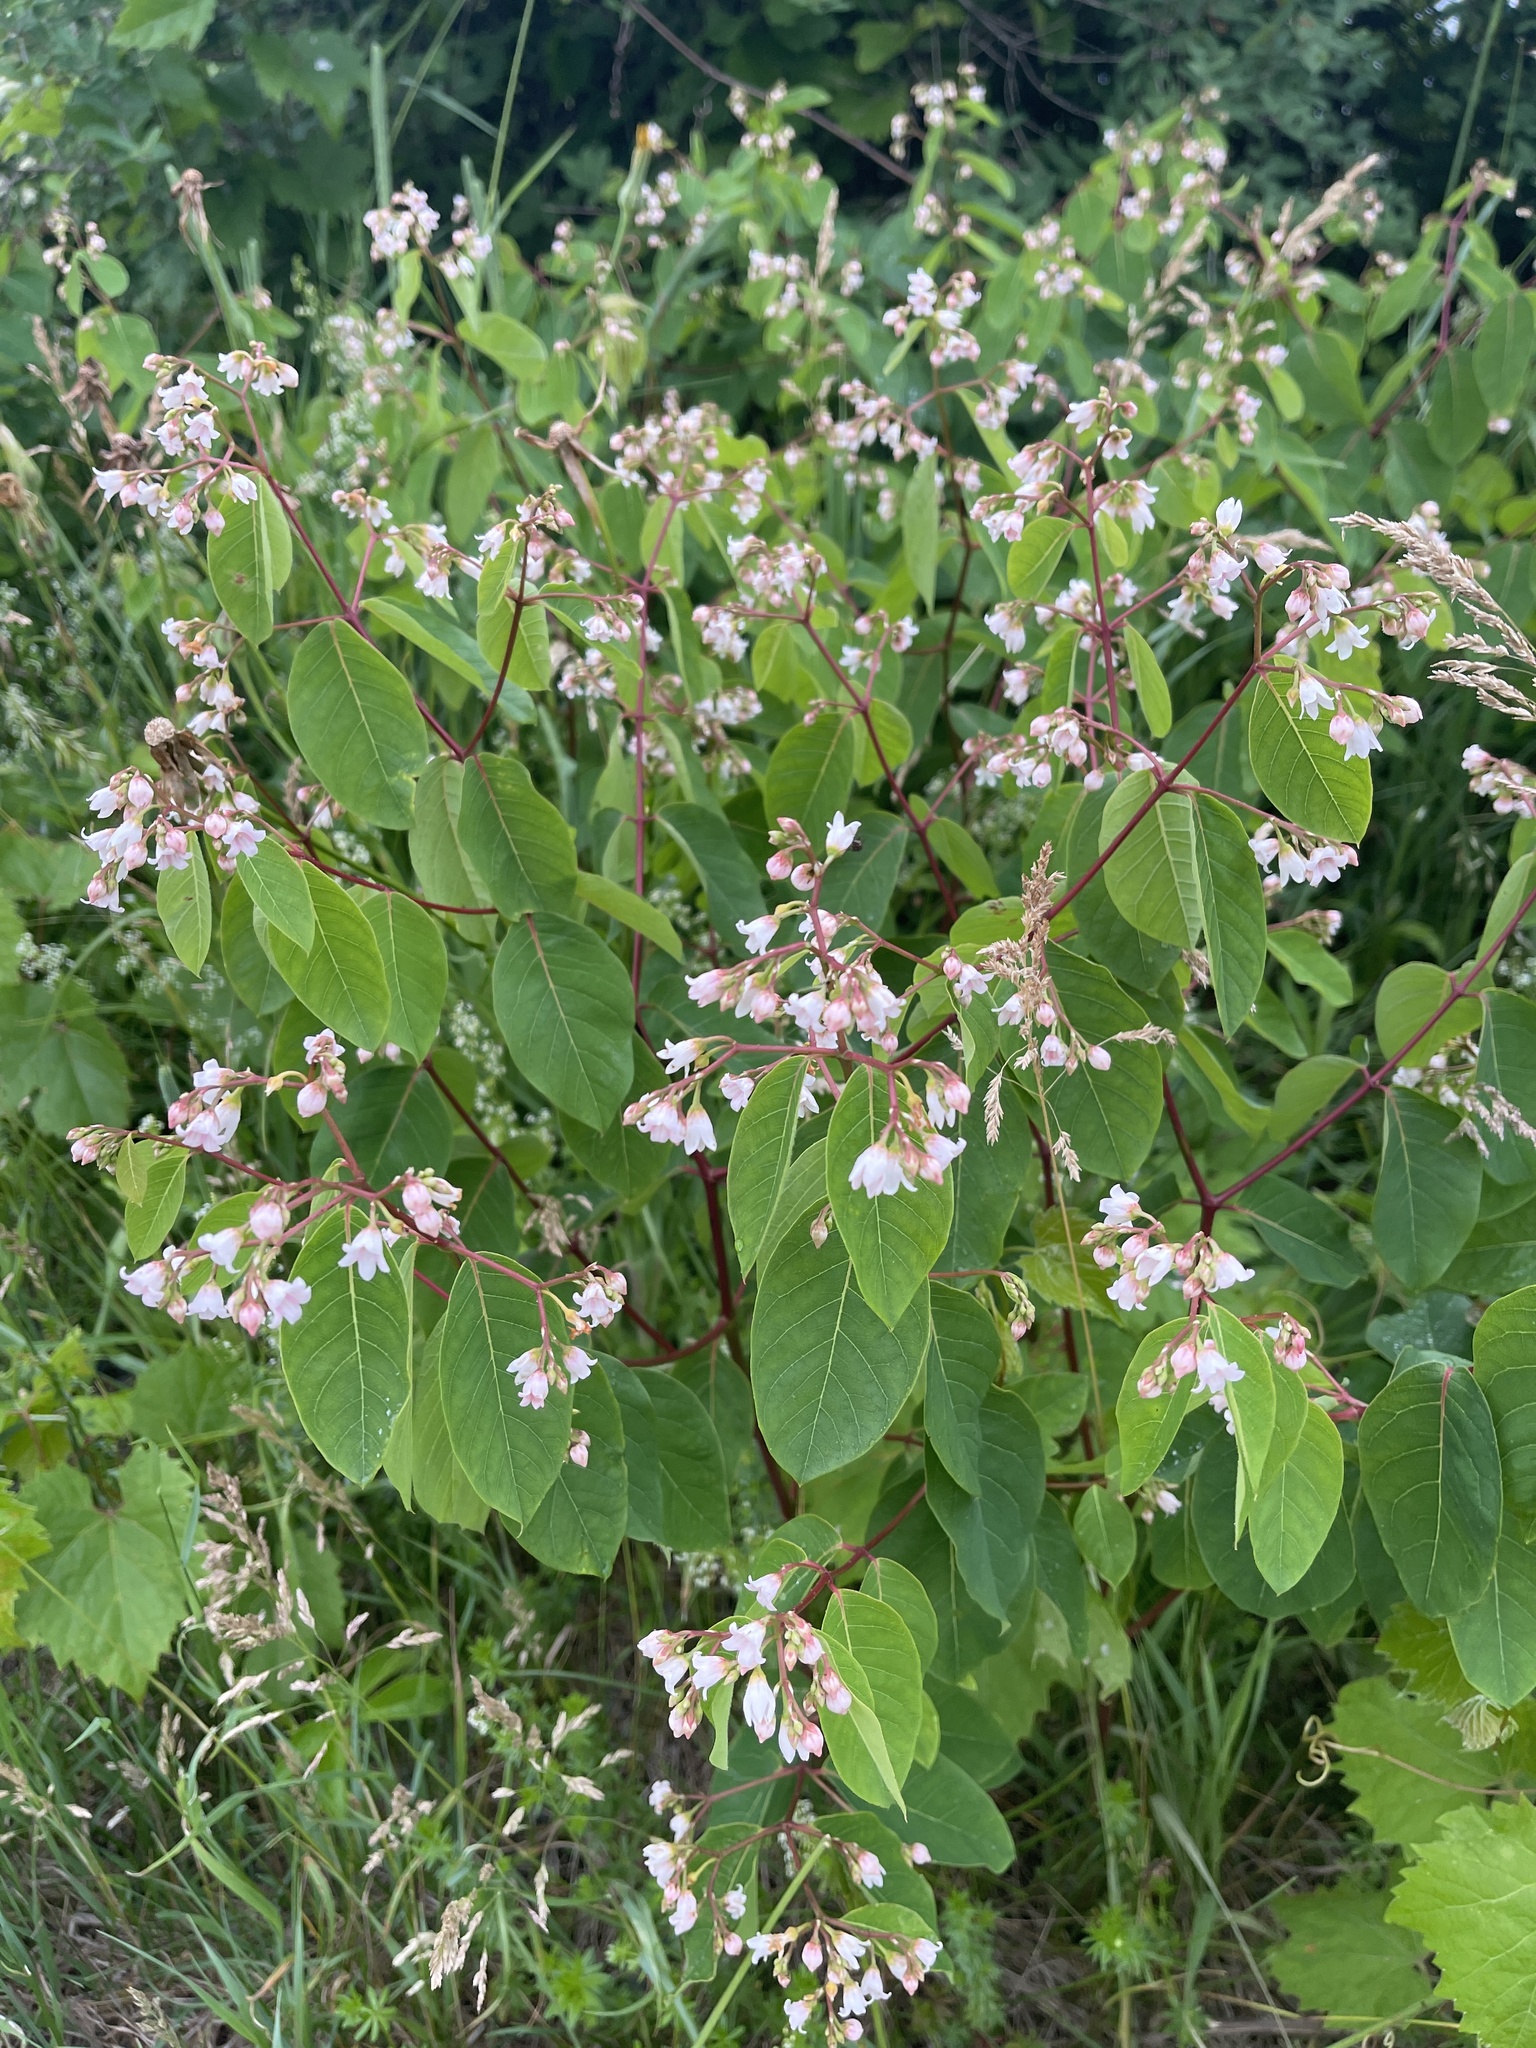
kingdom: Plantae
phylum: Tracheophyta
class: Magnoliopsida
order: Gentianales
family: Apocynaceae
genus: Apocynum
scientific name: Apocynum androsaemifolium
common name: Spreading dogbane
